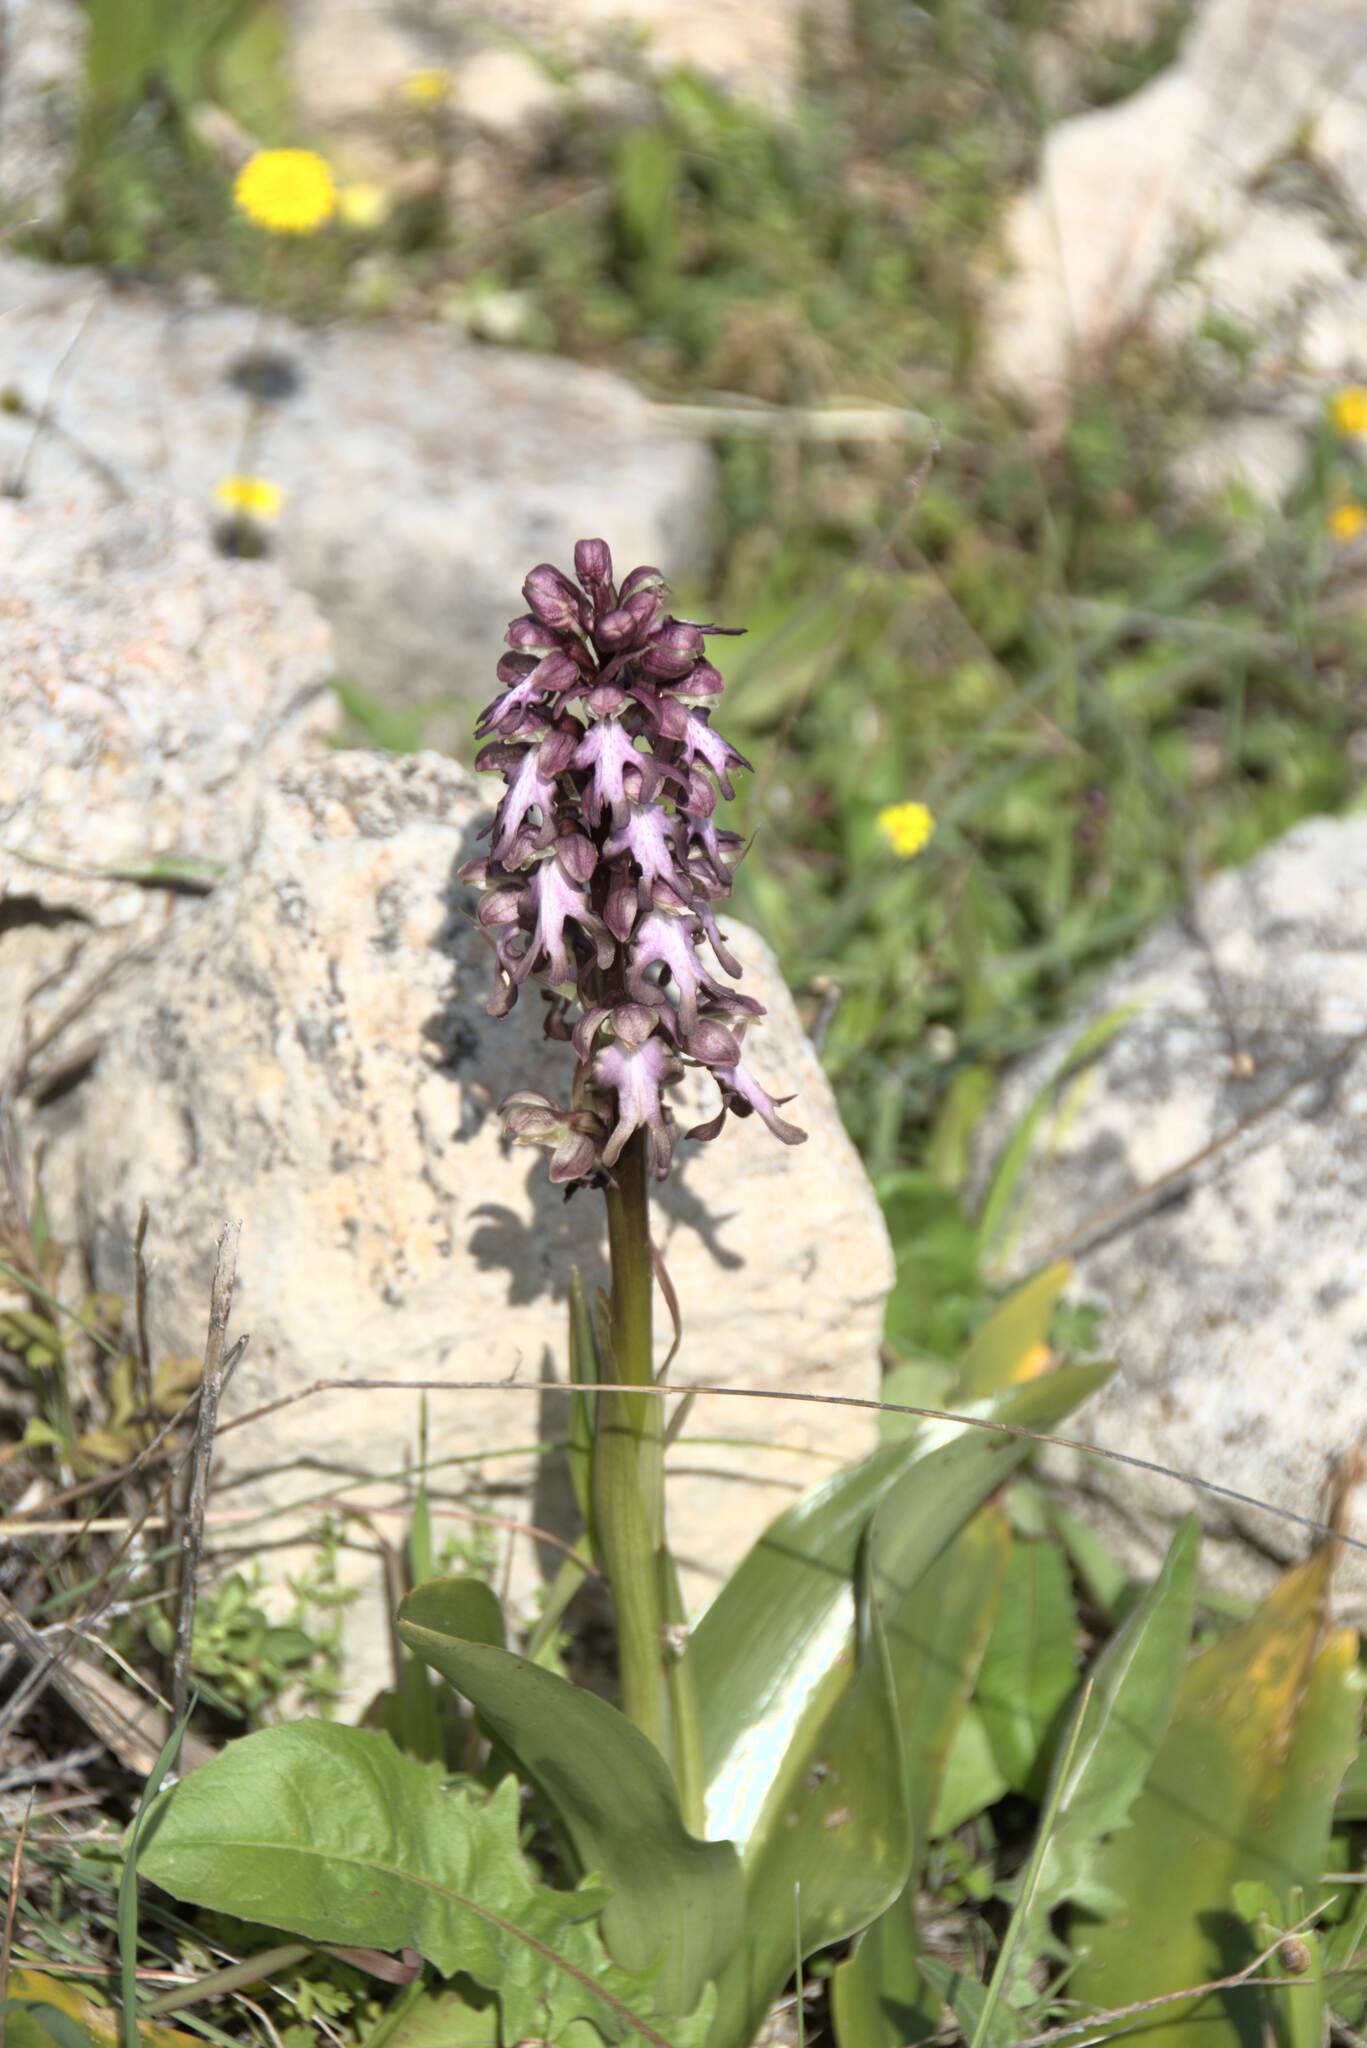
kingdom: Plantae
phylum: Tracheophyta
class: Liliopsida
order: Asparagales
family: Orchidaceae
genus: Himantoglossum
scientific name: Himantoglossum robertianum
